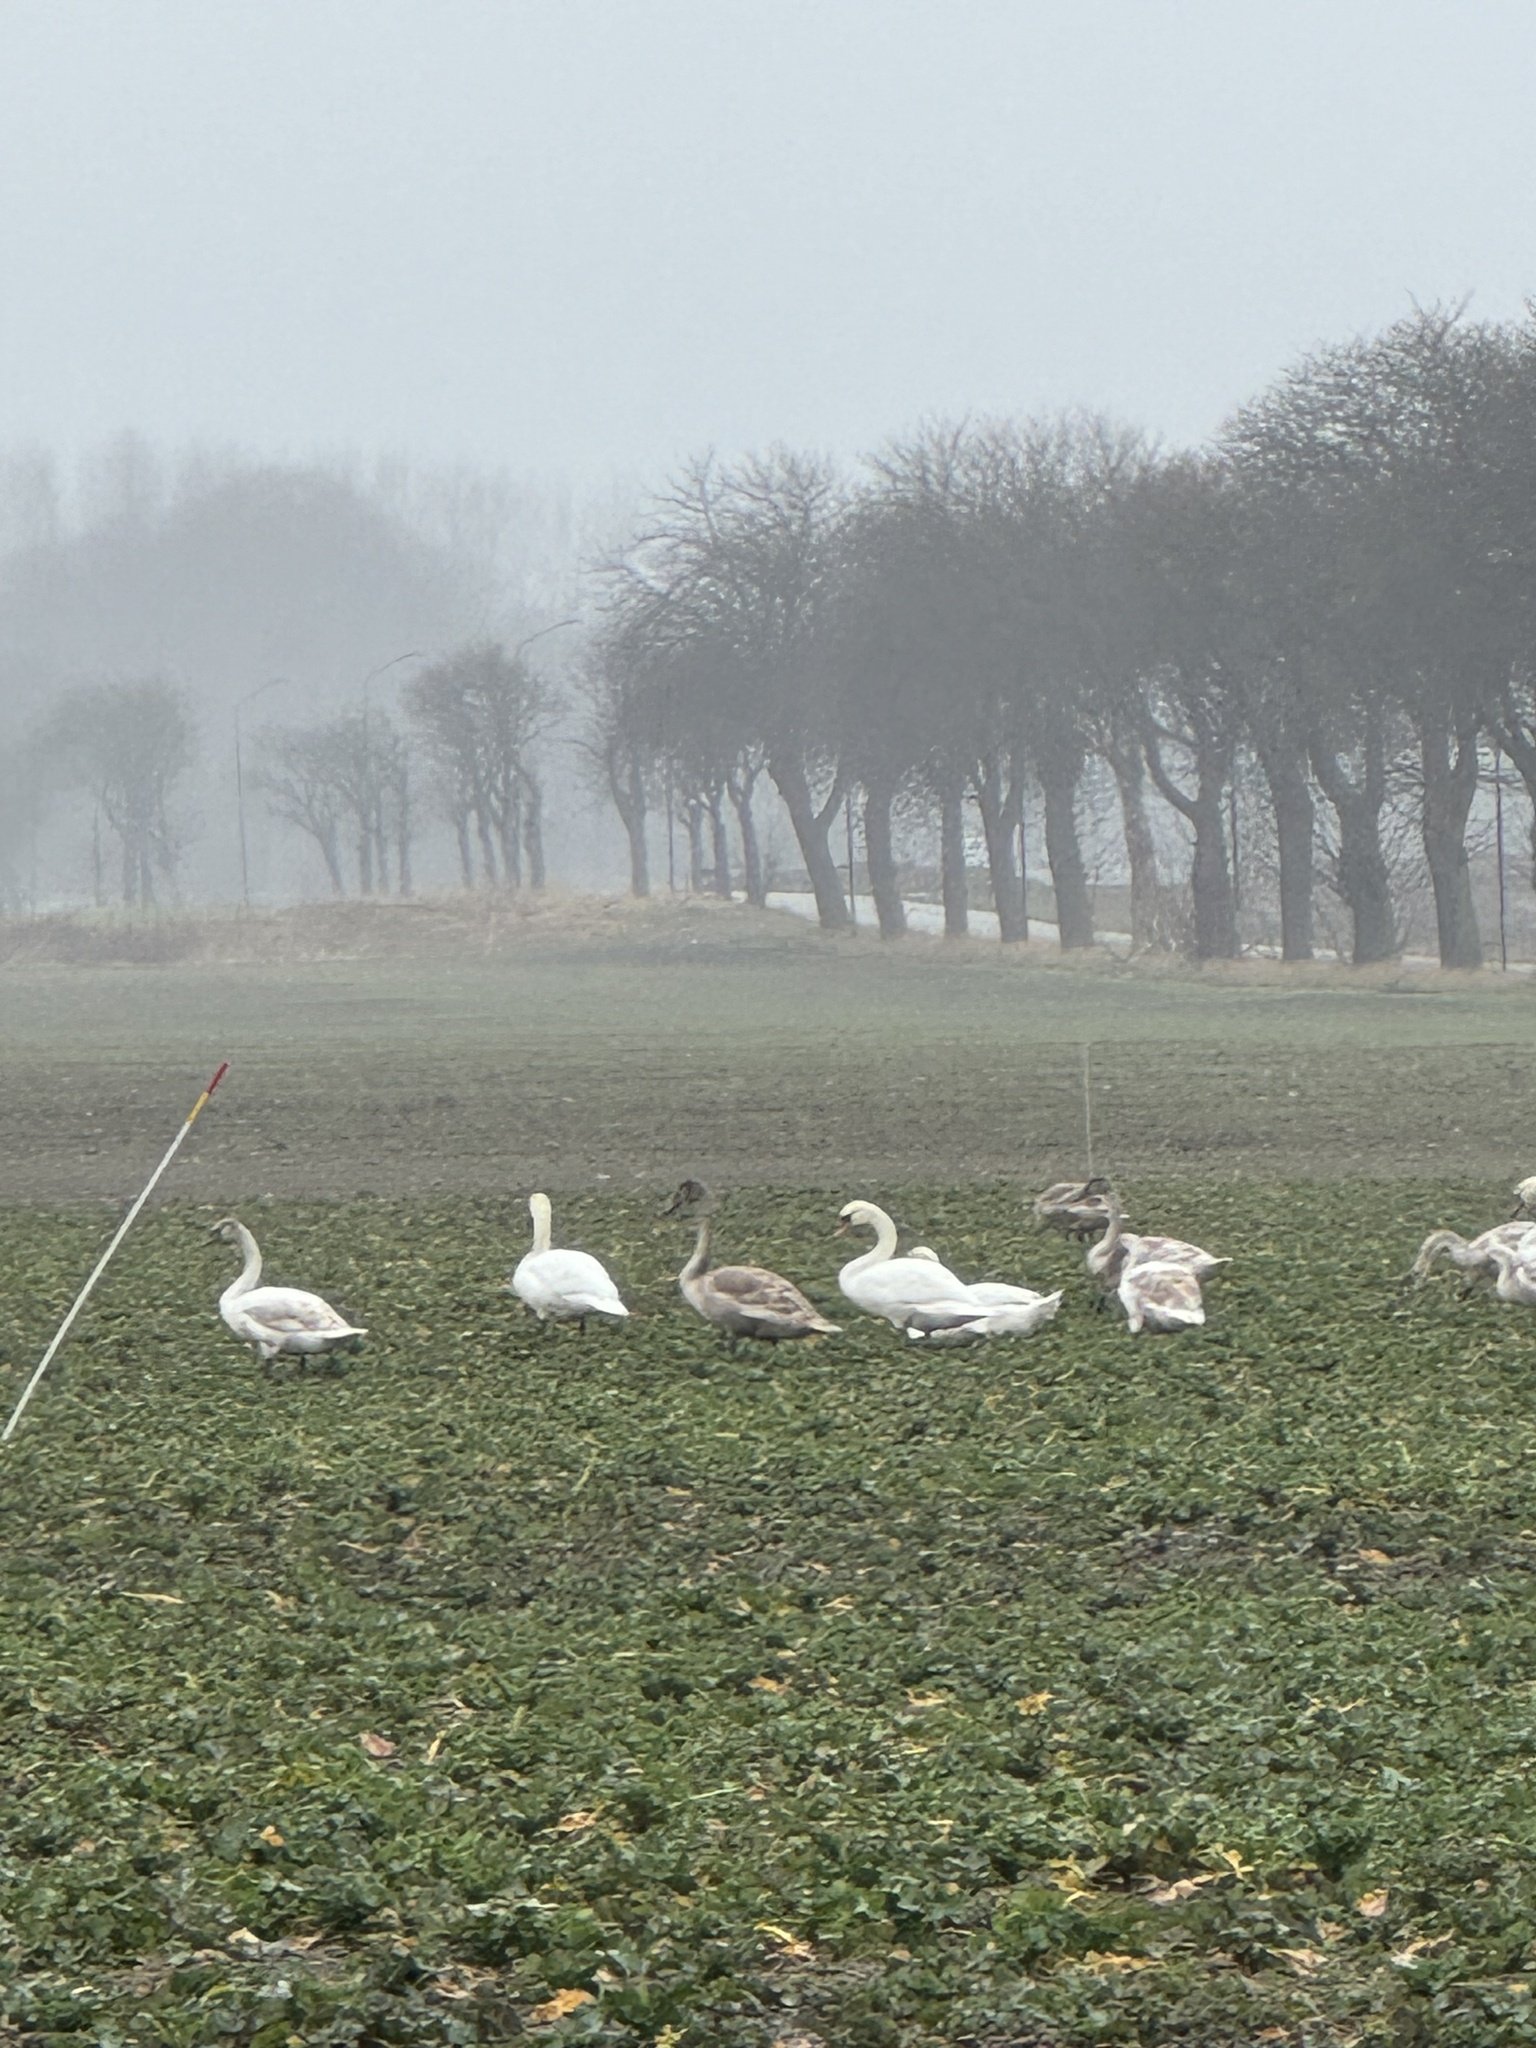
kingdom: Animalia
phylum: Chordata
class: Aves
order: Anseriformes
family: Anatidae
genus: Cygnus
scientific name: Cygnus olor
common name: Mute swan
